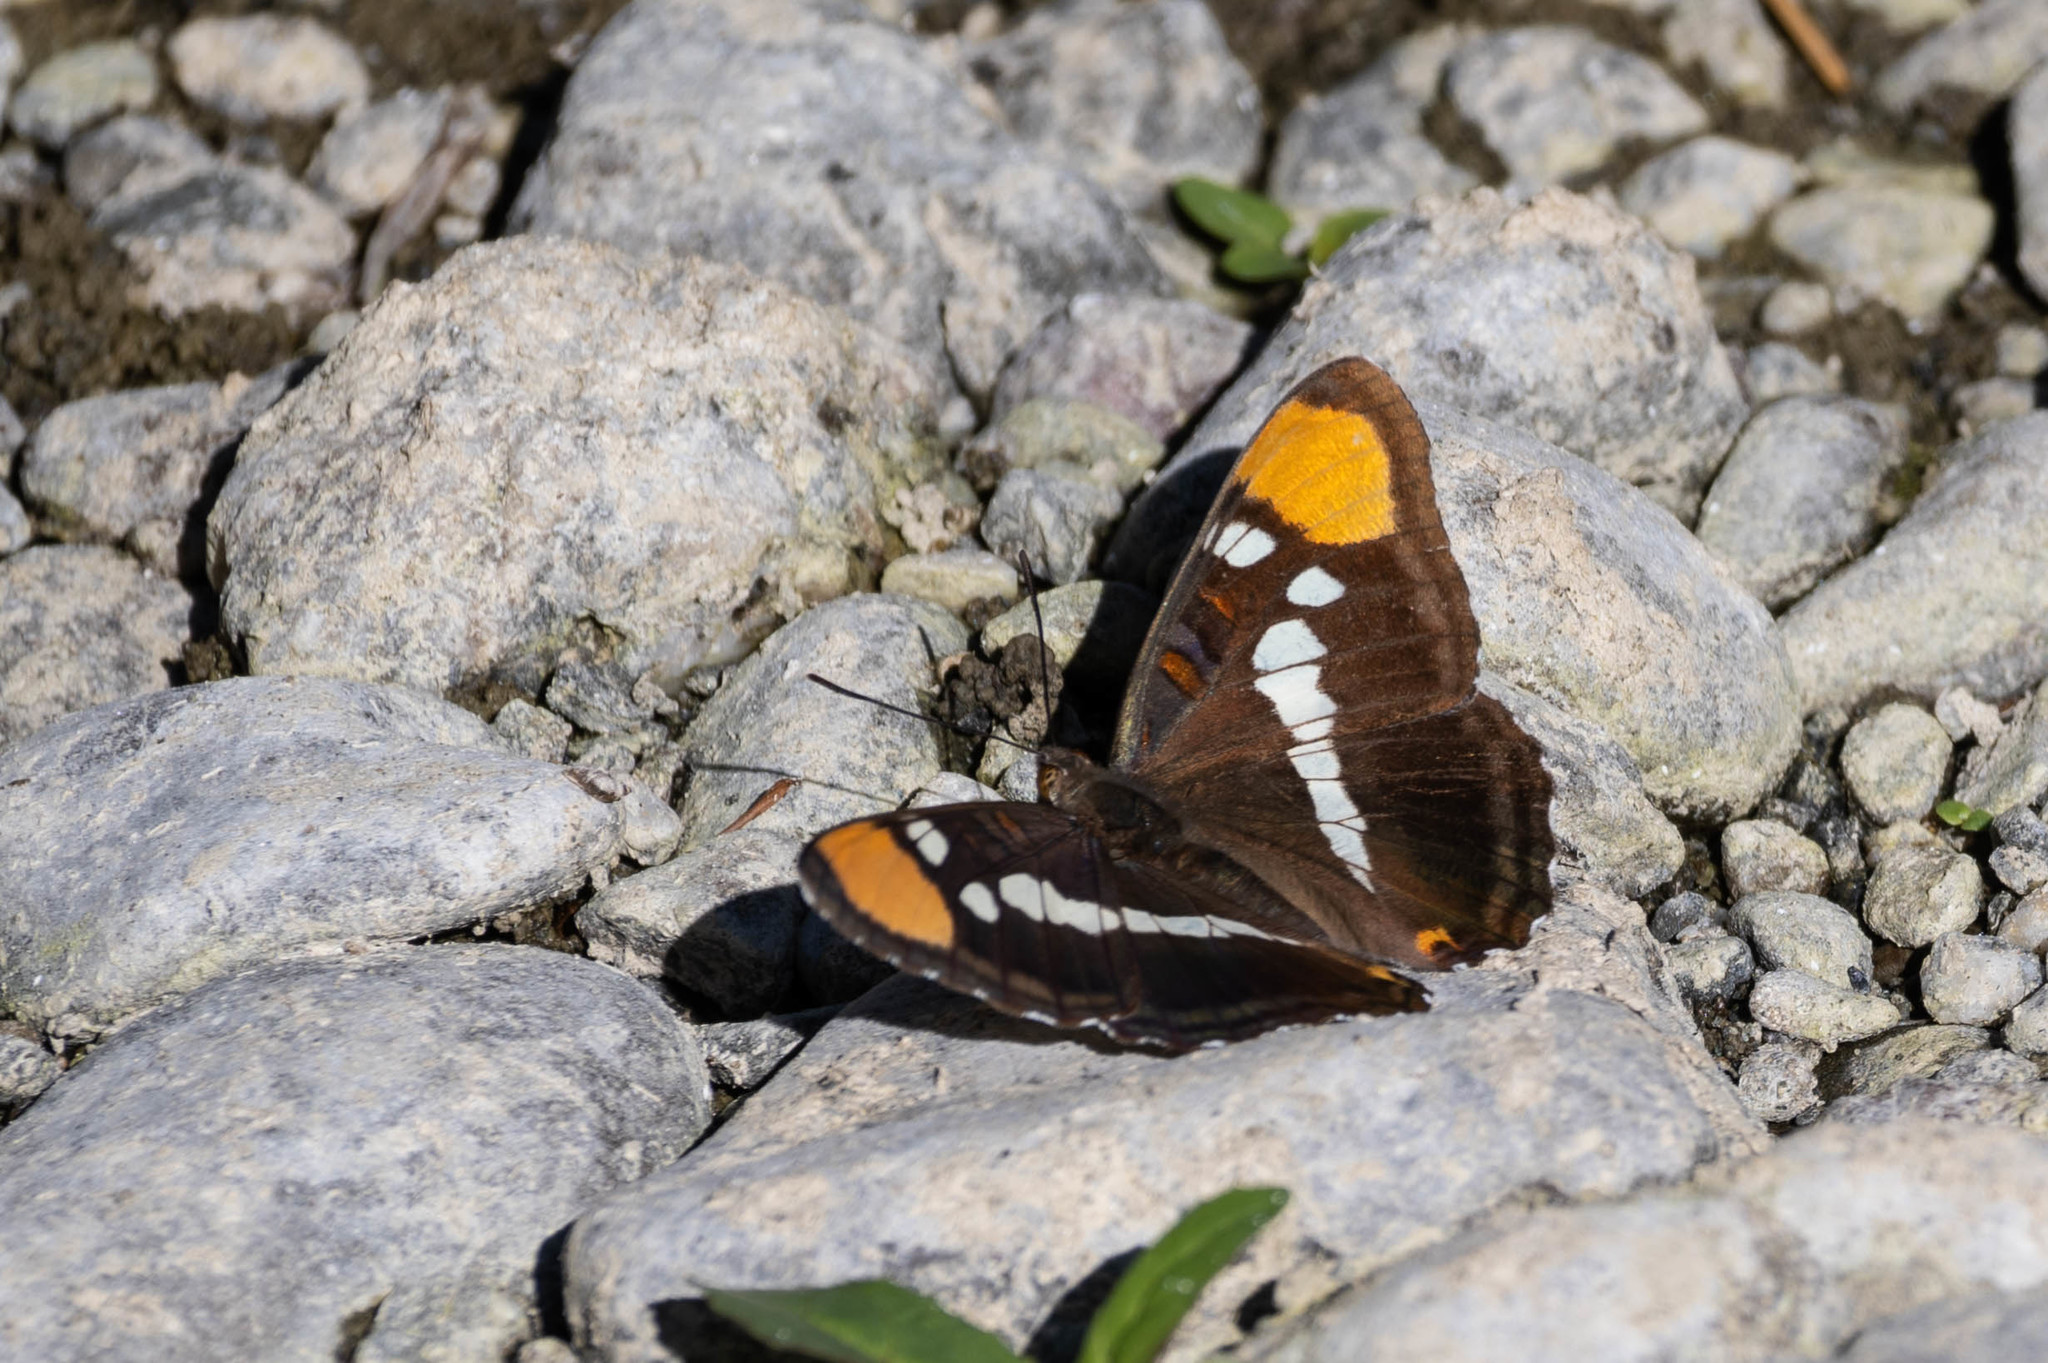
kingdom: Animalia
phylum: Arthropoda
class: Insecta
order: Lepidoptera
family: Nymphalidae
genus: Limenitis
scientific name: Limenitis bredowii
